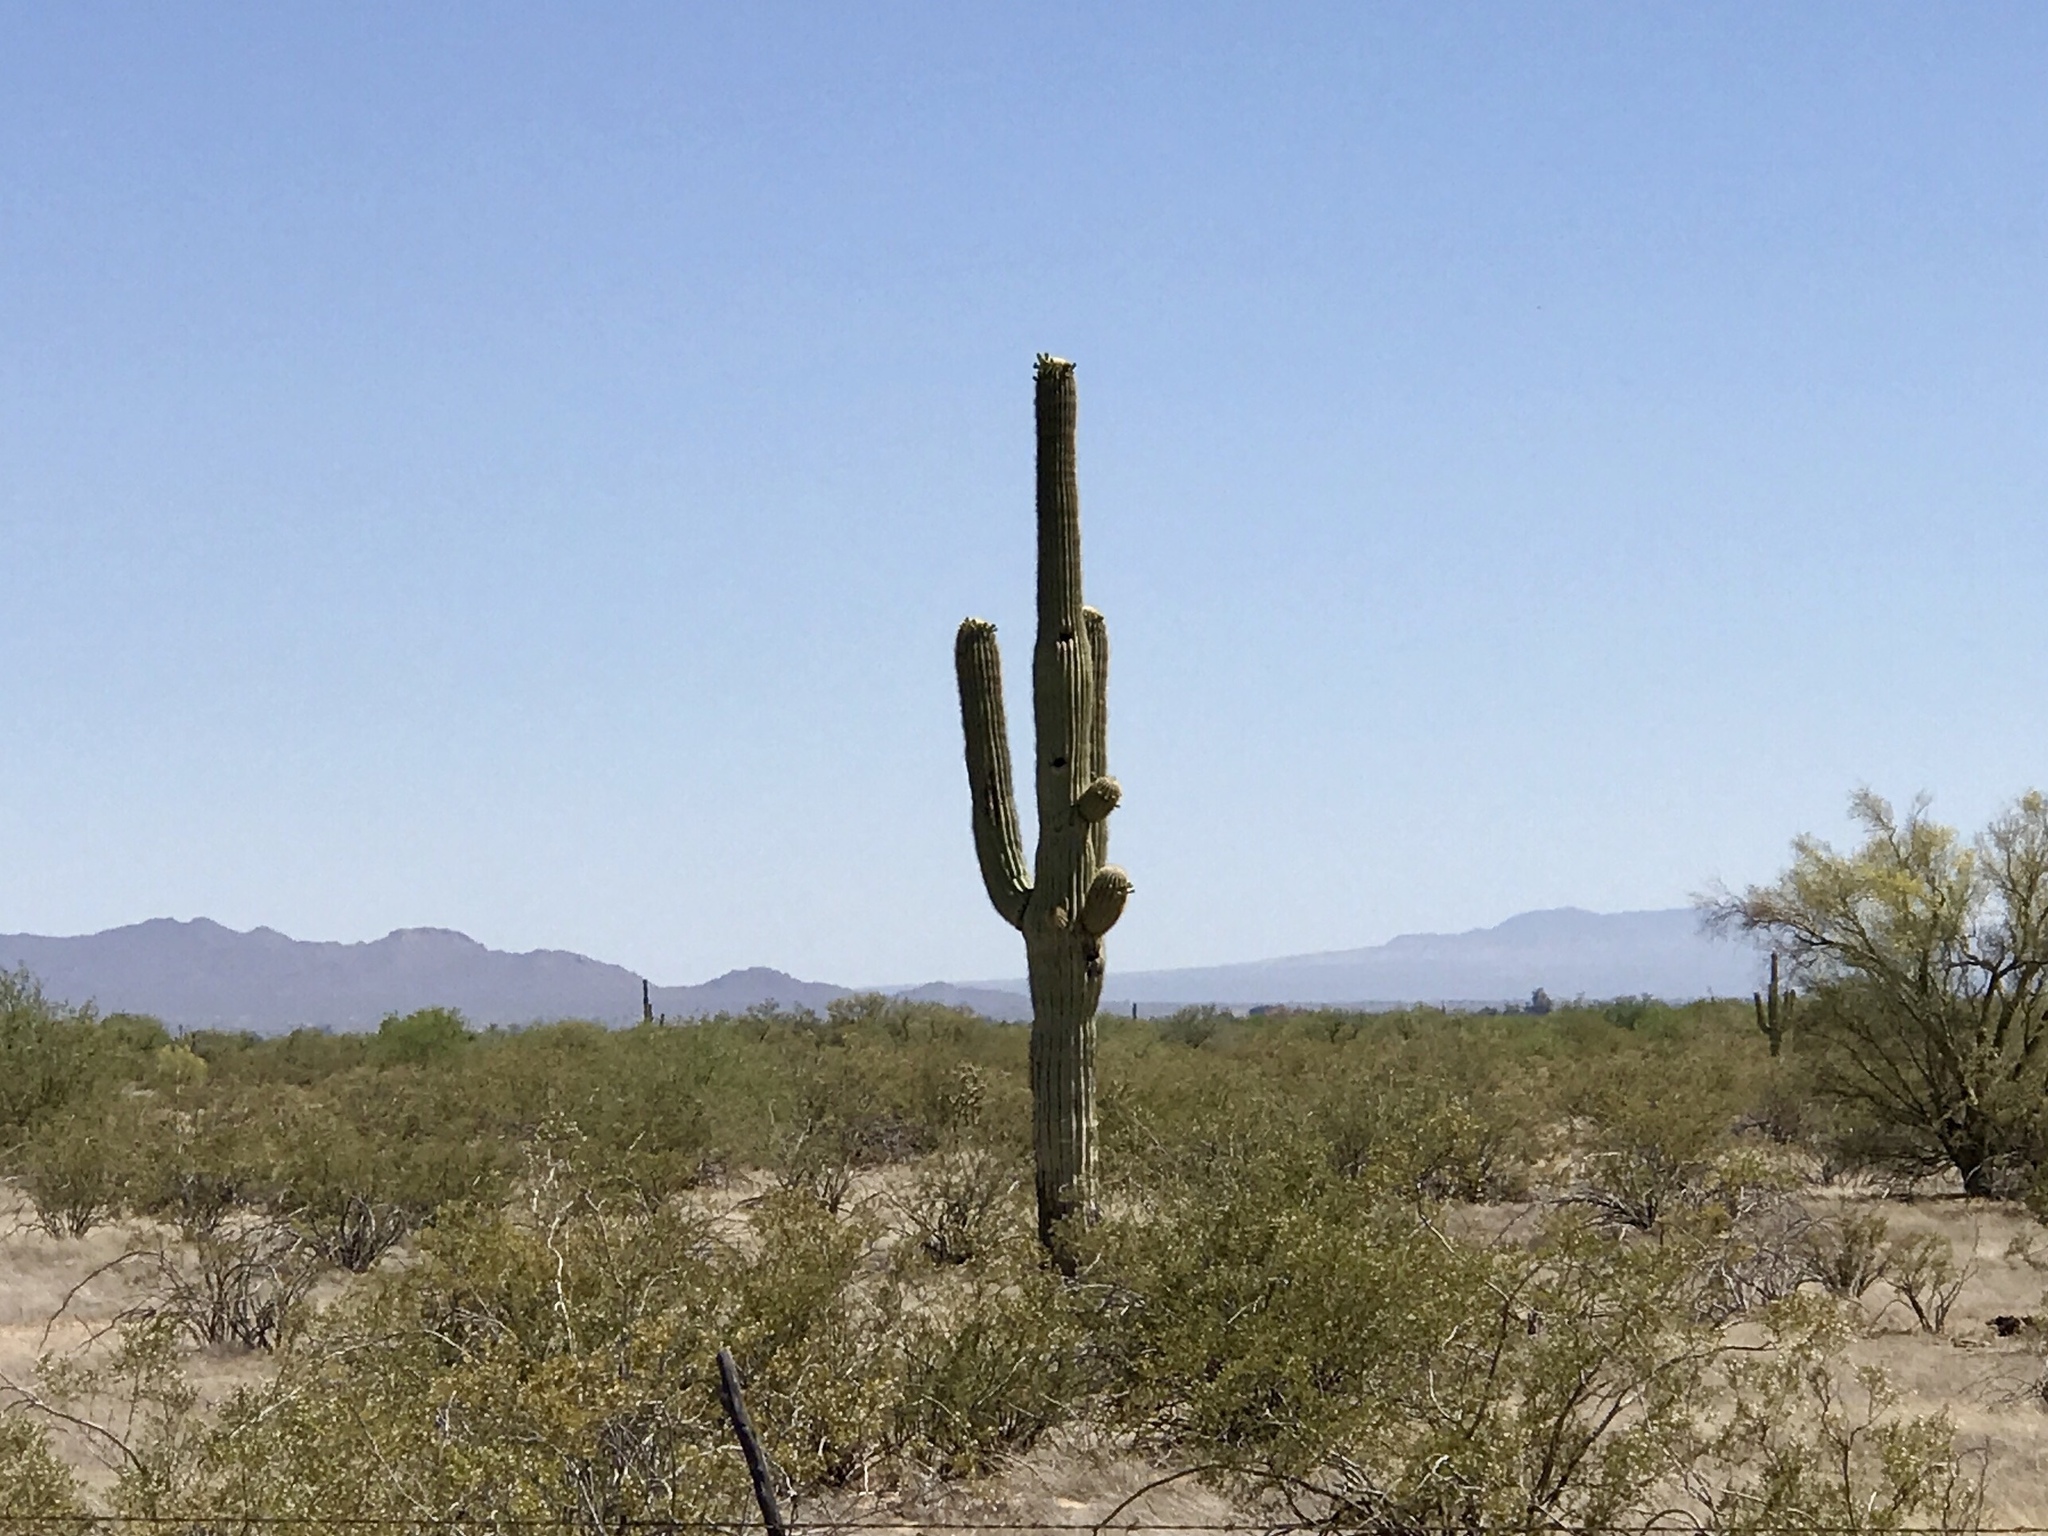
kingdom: Plantae
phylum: Tracheophyta
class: Magnoliopsida
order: Caryophyllales
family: Cactaceae
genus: Carnegiea
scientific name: Carnegiea gigantea
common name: Saguaro
